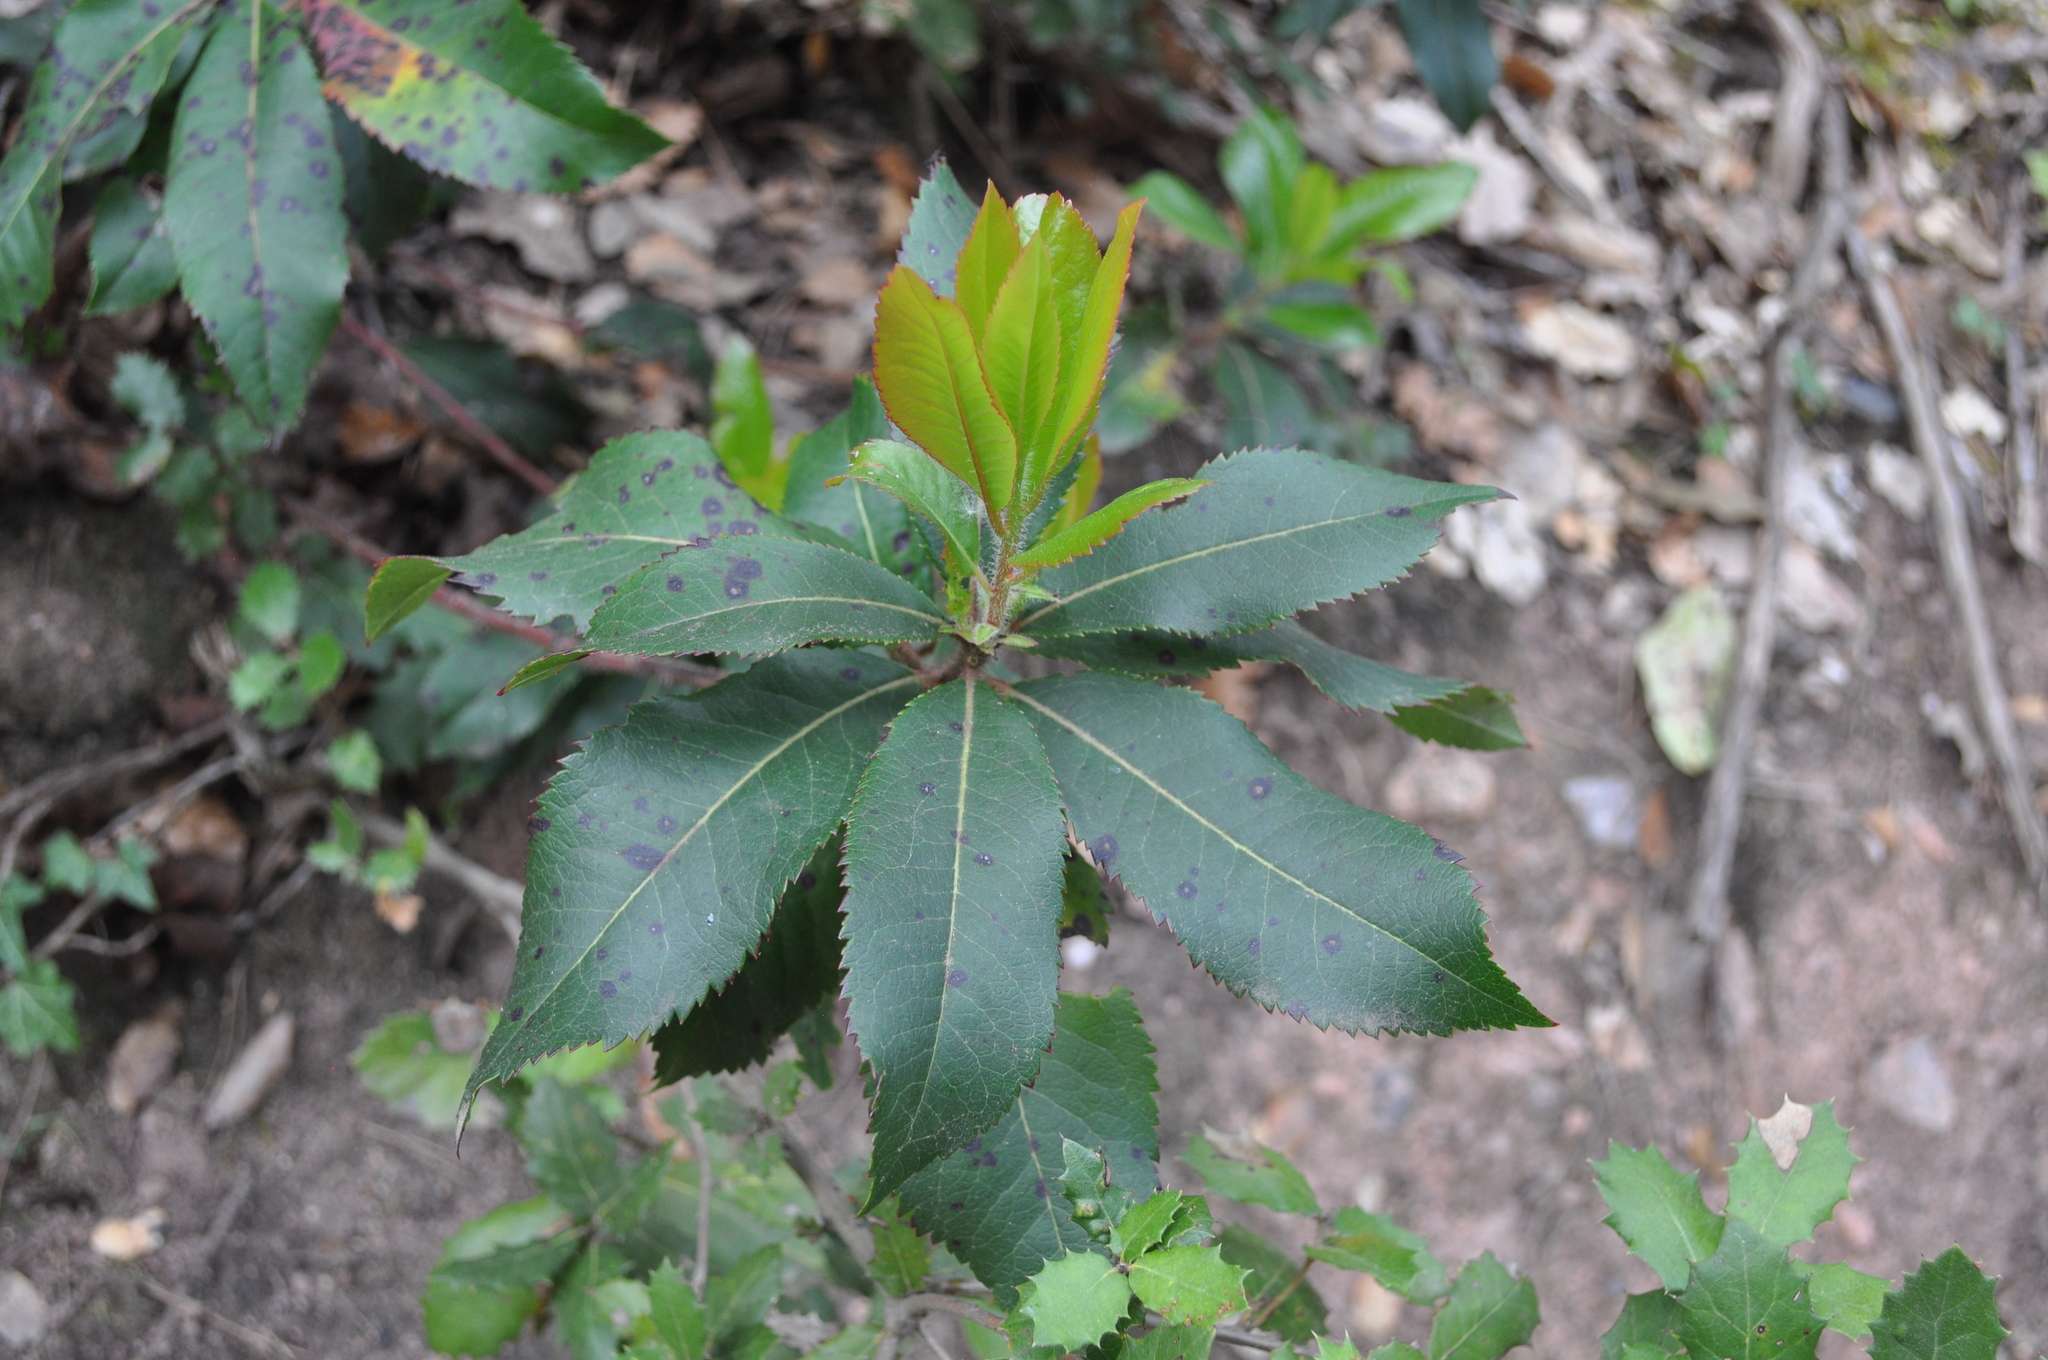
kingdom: Plantae
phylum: Tracheophyta
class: Magnoliopsida
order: Ericales
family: Ericaceae
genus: Arbutus
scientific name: Arbutus unedo
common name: Strawberry-tree
